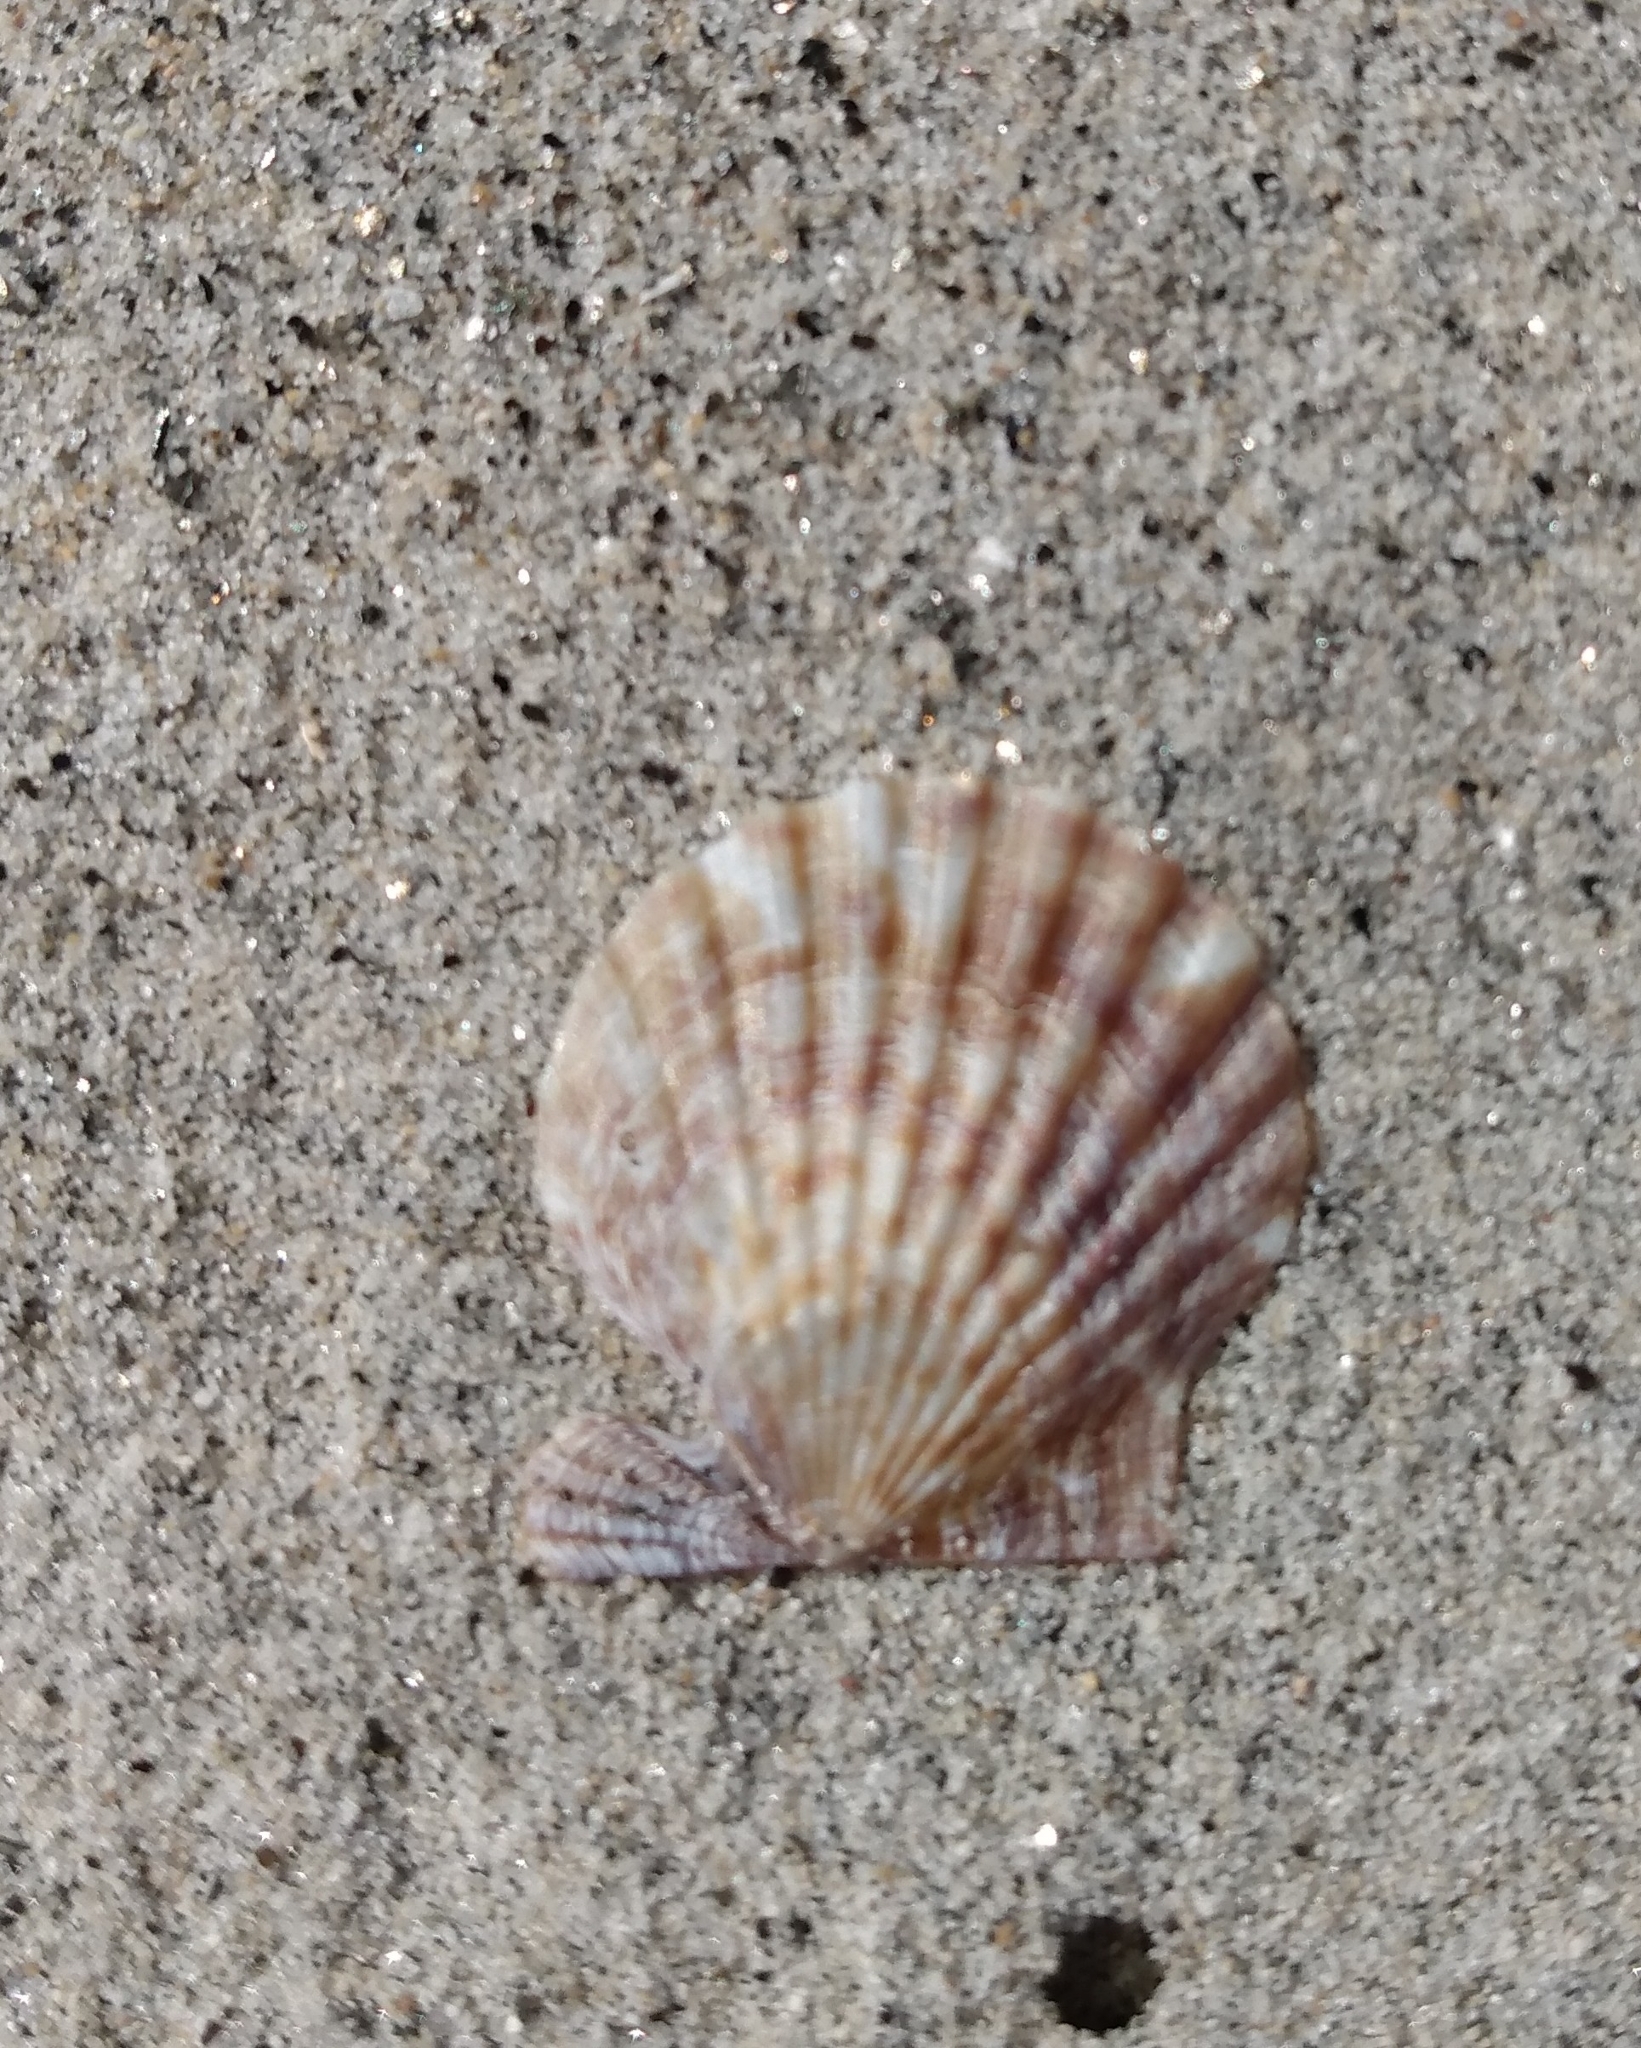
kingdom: Animalia
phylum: Mollusca
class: Bivalvia
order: Pectinida
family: Pectinidae
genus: Leptopecten
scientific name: Leptopecten latiauratus
